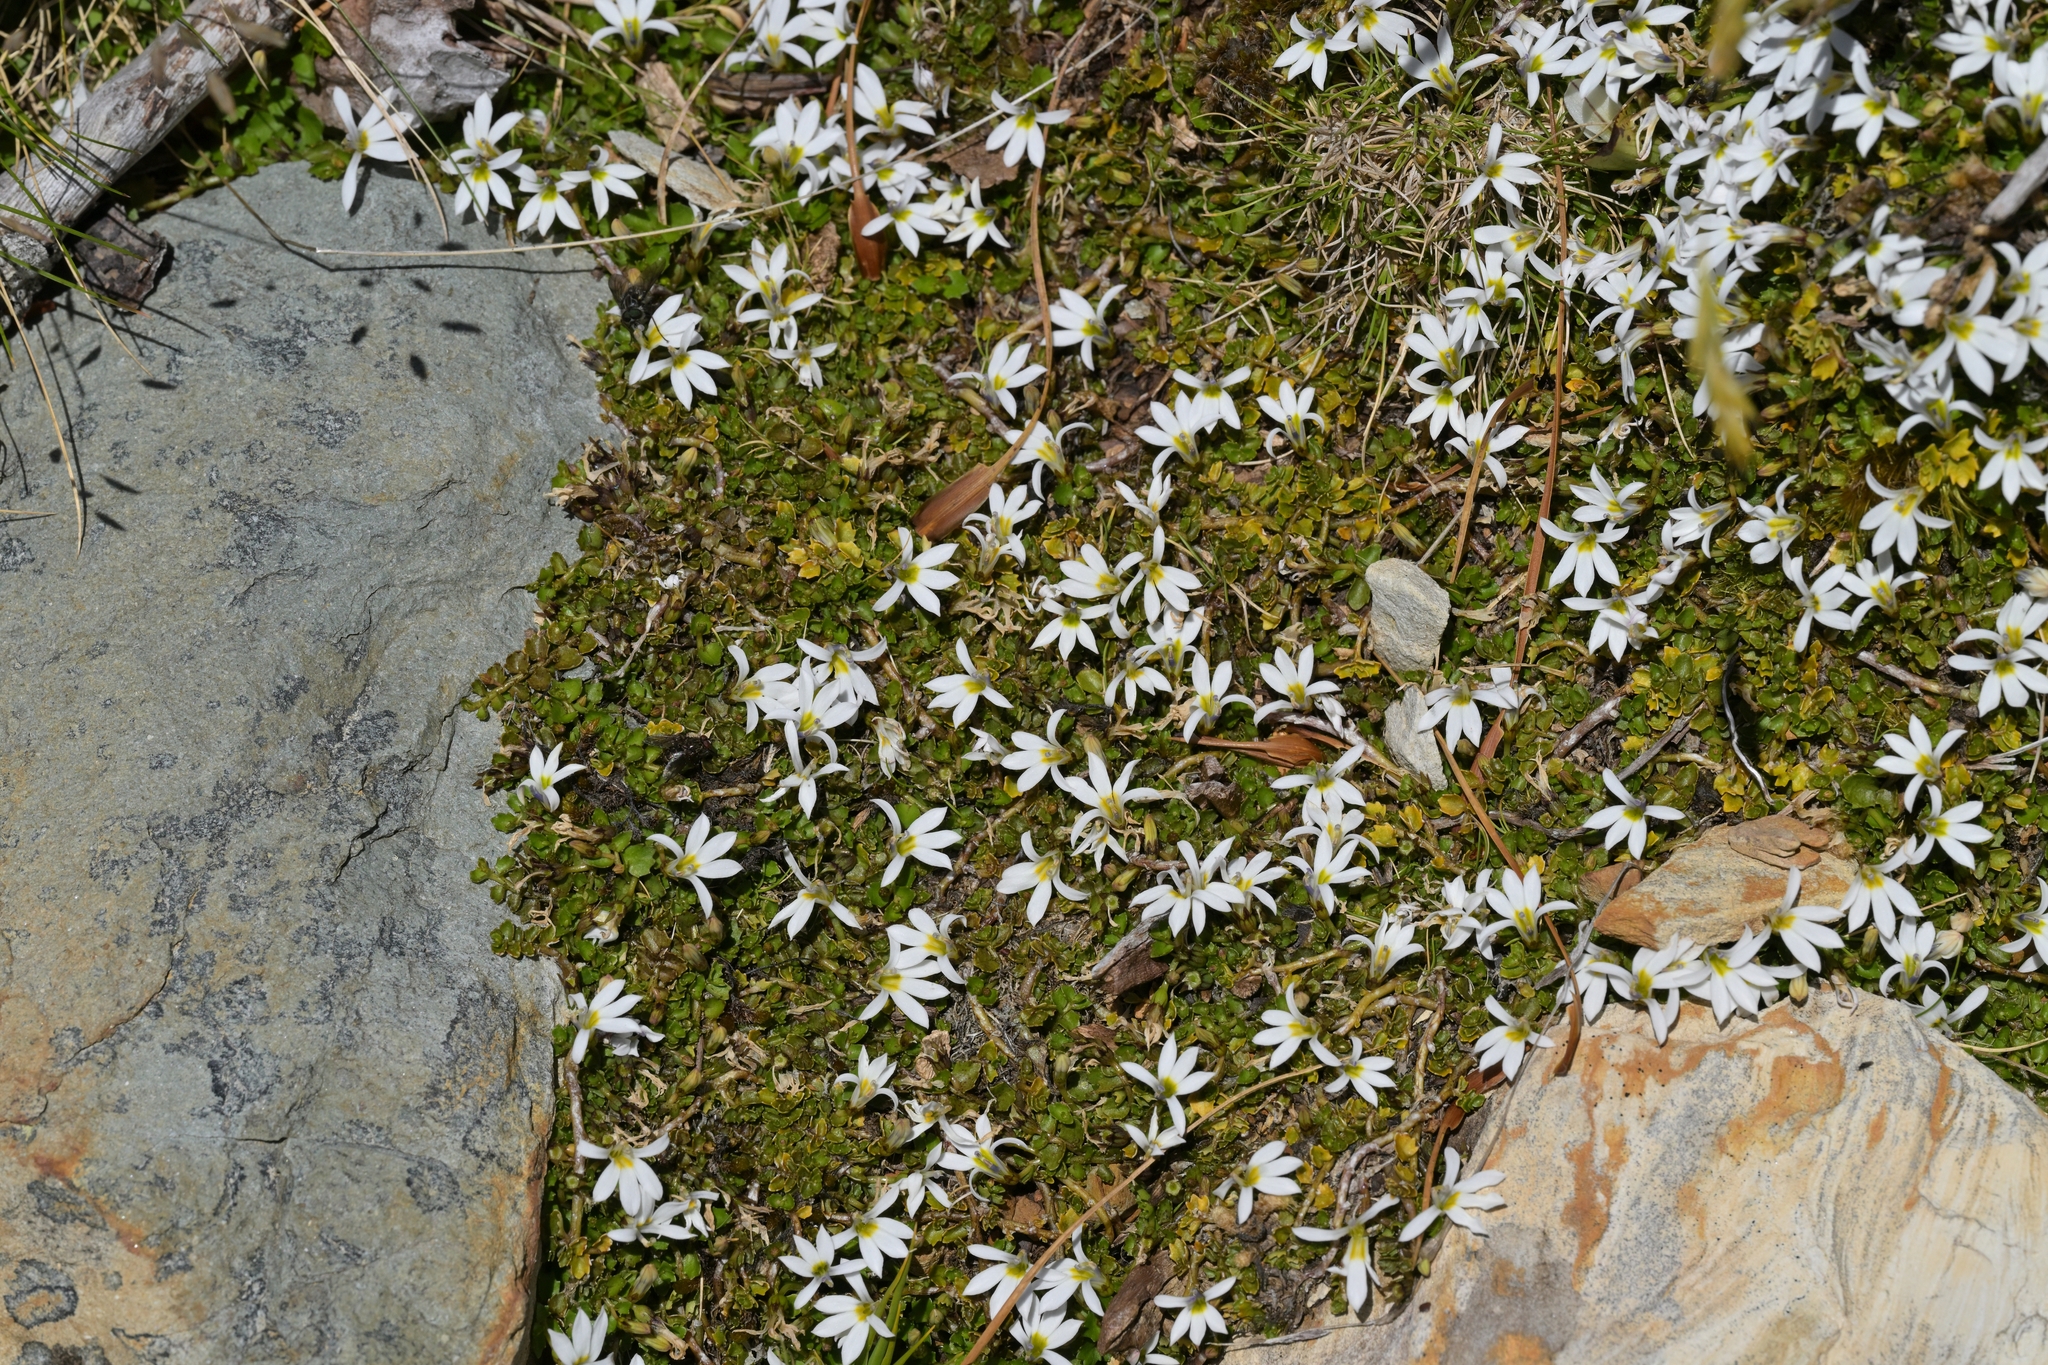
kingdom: Plantae
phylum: Tracheophyta
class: Magnoliopsida
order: Asterales
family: Campanulaceae
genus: Lobelia
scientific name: Lobelia angulata
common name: Lawn lobelia
